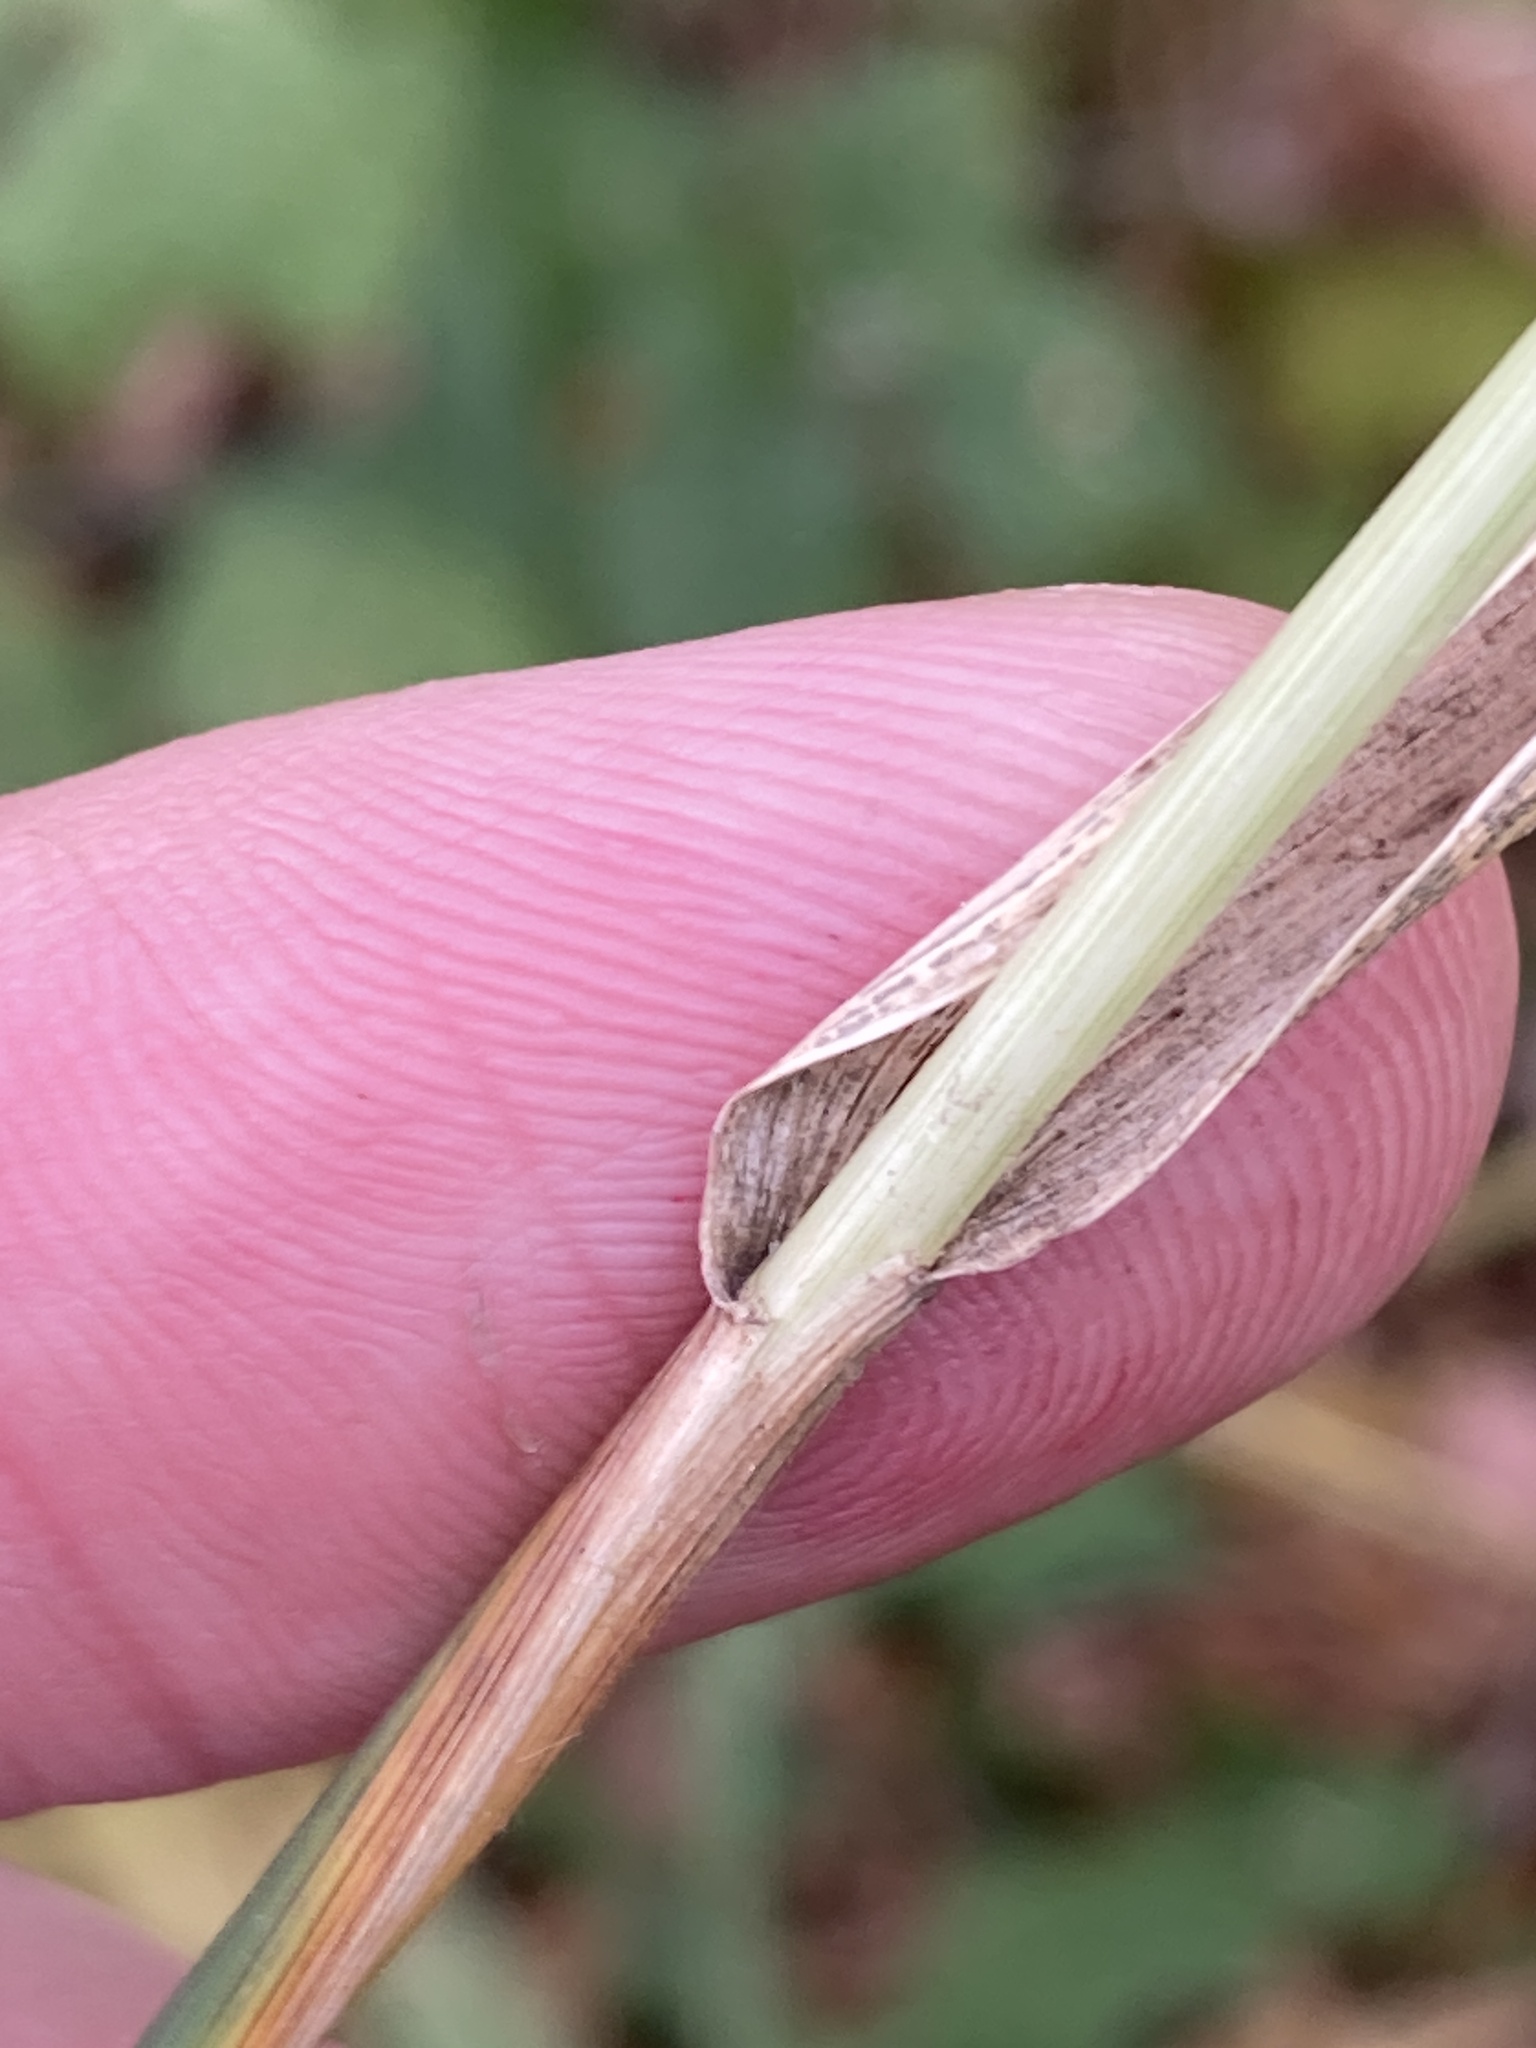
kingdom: Plantae
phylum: Tracheophyta
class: Liliopsida
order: Poales
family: Poaceae
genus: Elymus
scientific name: Elymus repens
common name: Quackgrass
